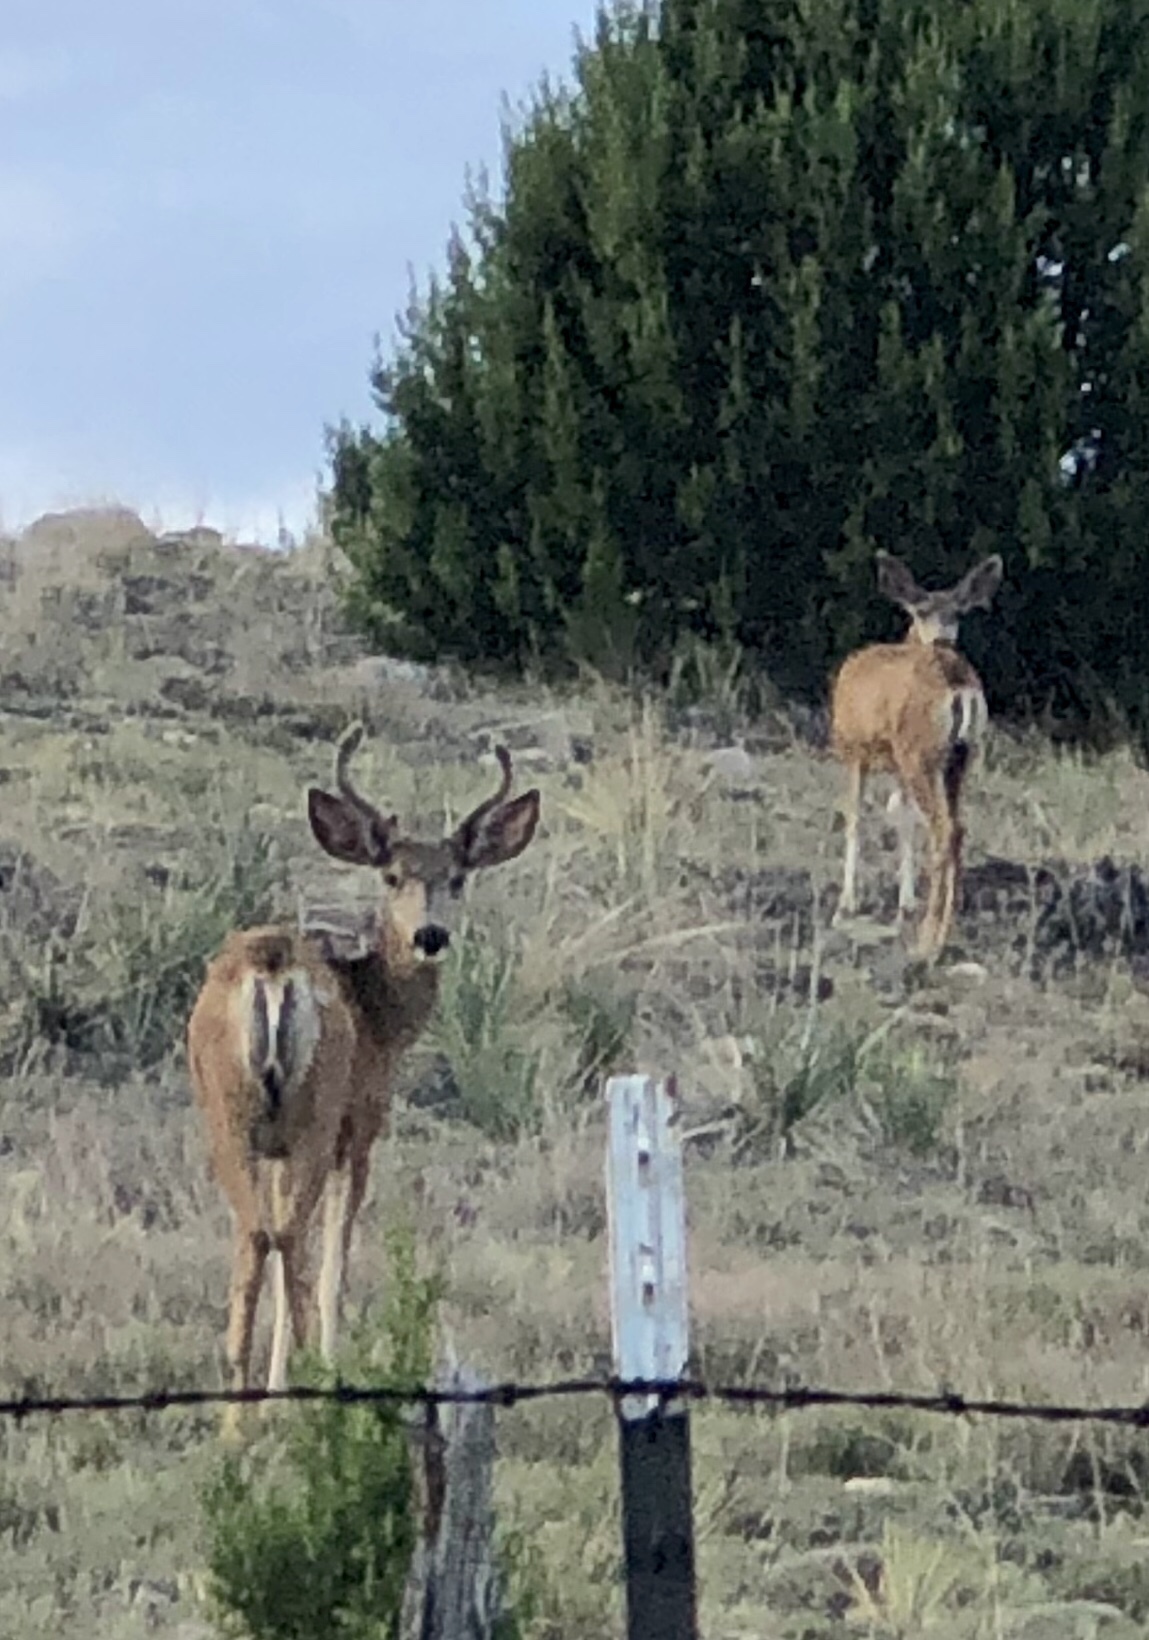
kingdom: Animalia
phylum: Chordata
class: Mammalia
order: Artiodactyla
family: Cervidae
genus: Odocoileus
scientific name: Odocoileus hemionus
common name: Mule deer
